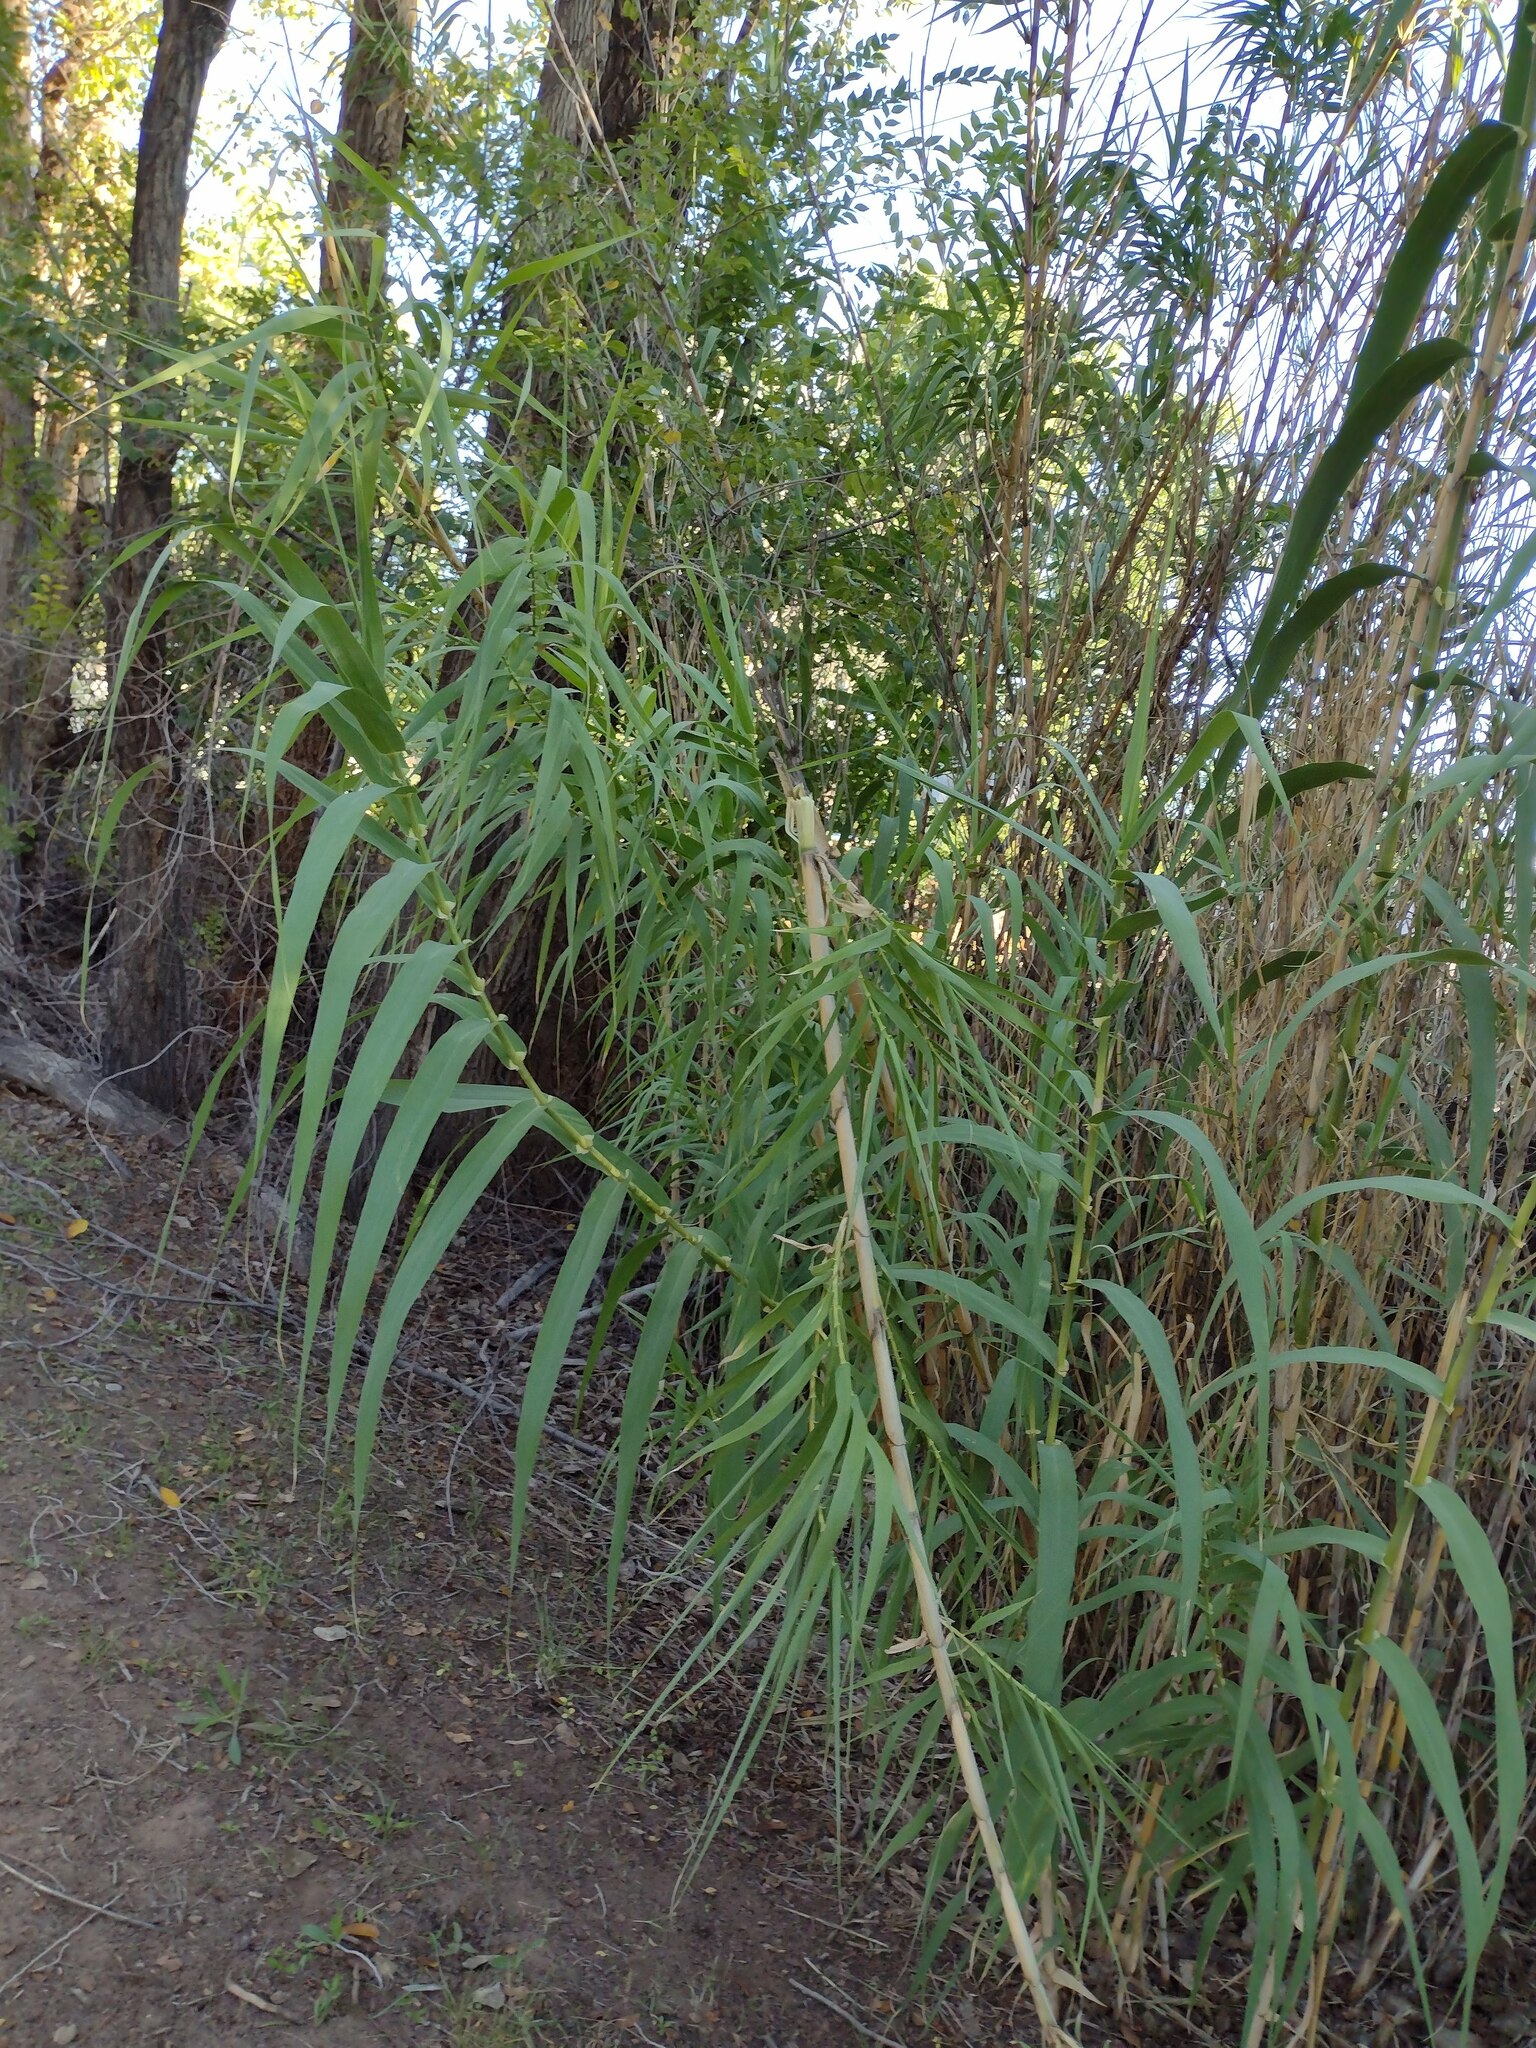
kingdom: Plantae
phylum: Tracheophyta
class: Liliopsida
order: Poales
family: Poaceae
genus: Arundo
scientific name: Arundo donax
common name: Giant reed
